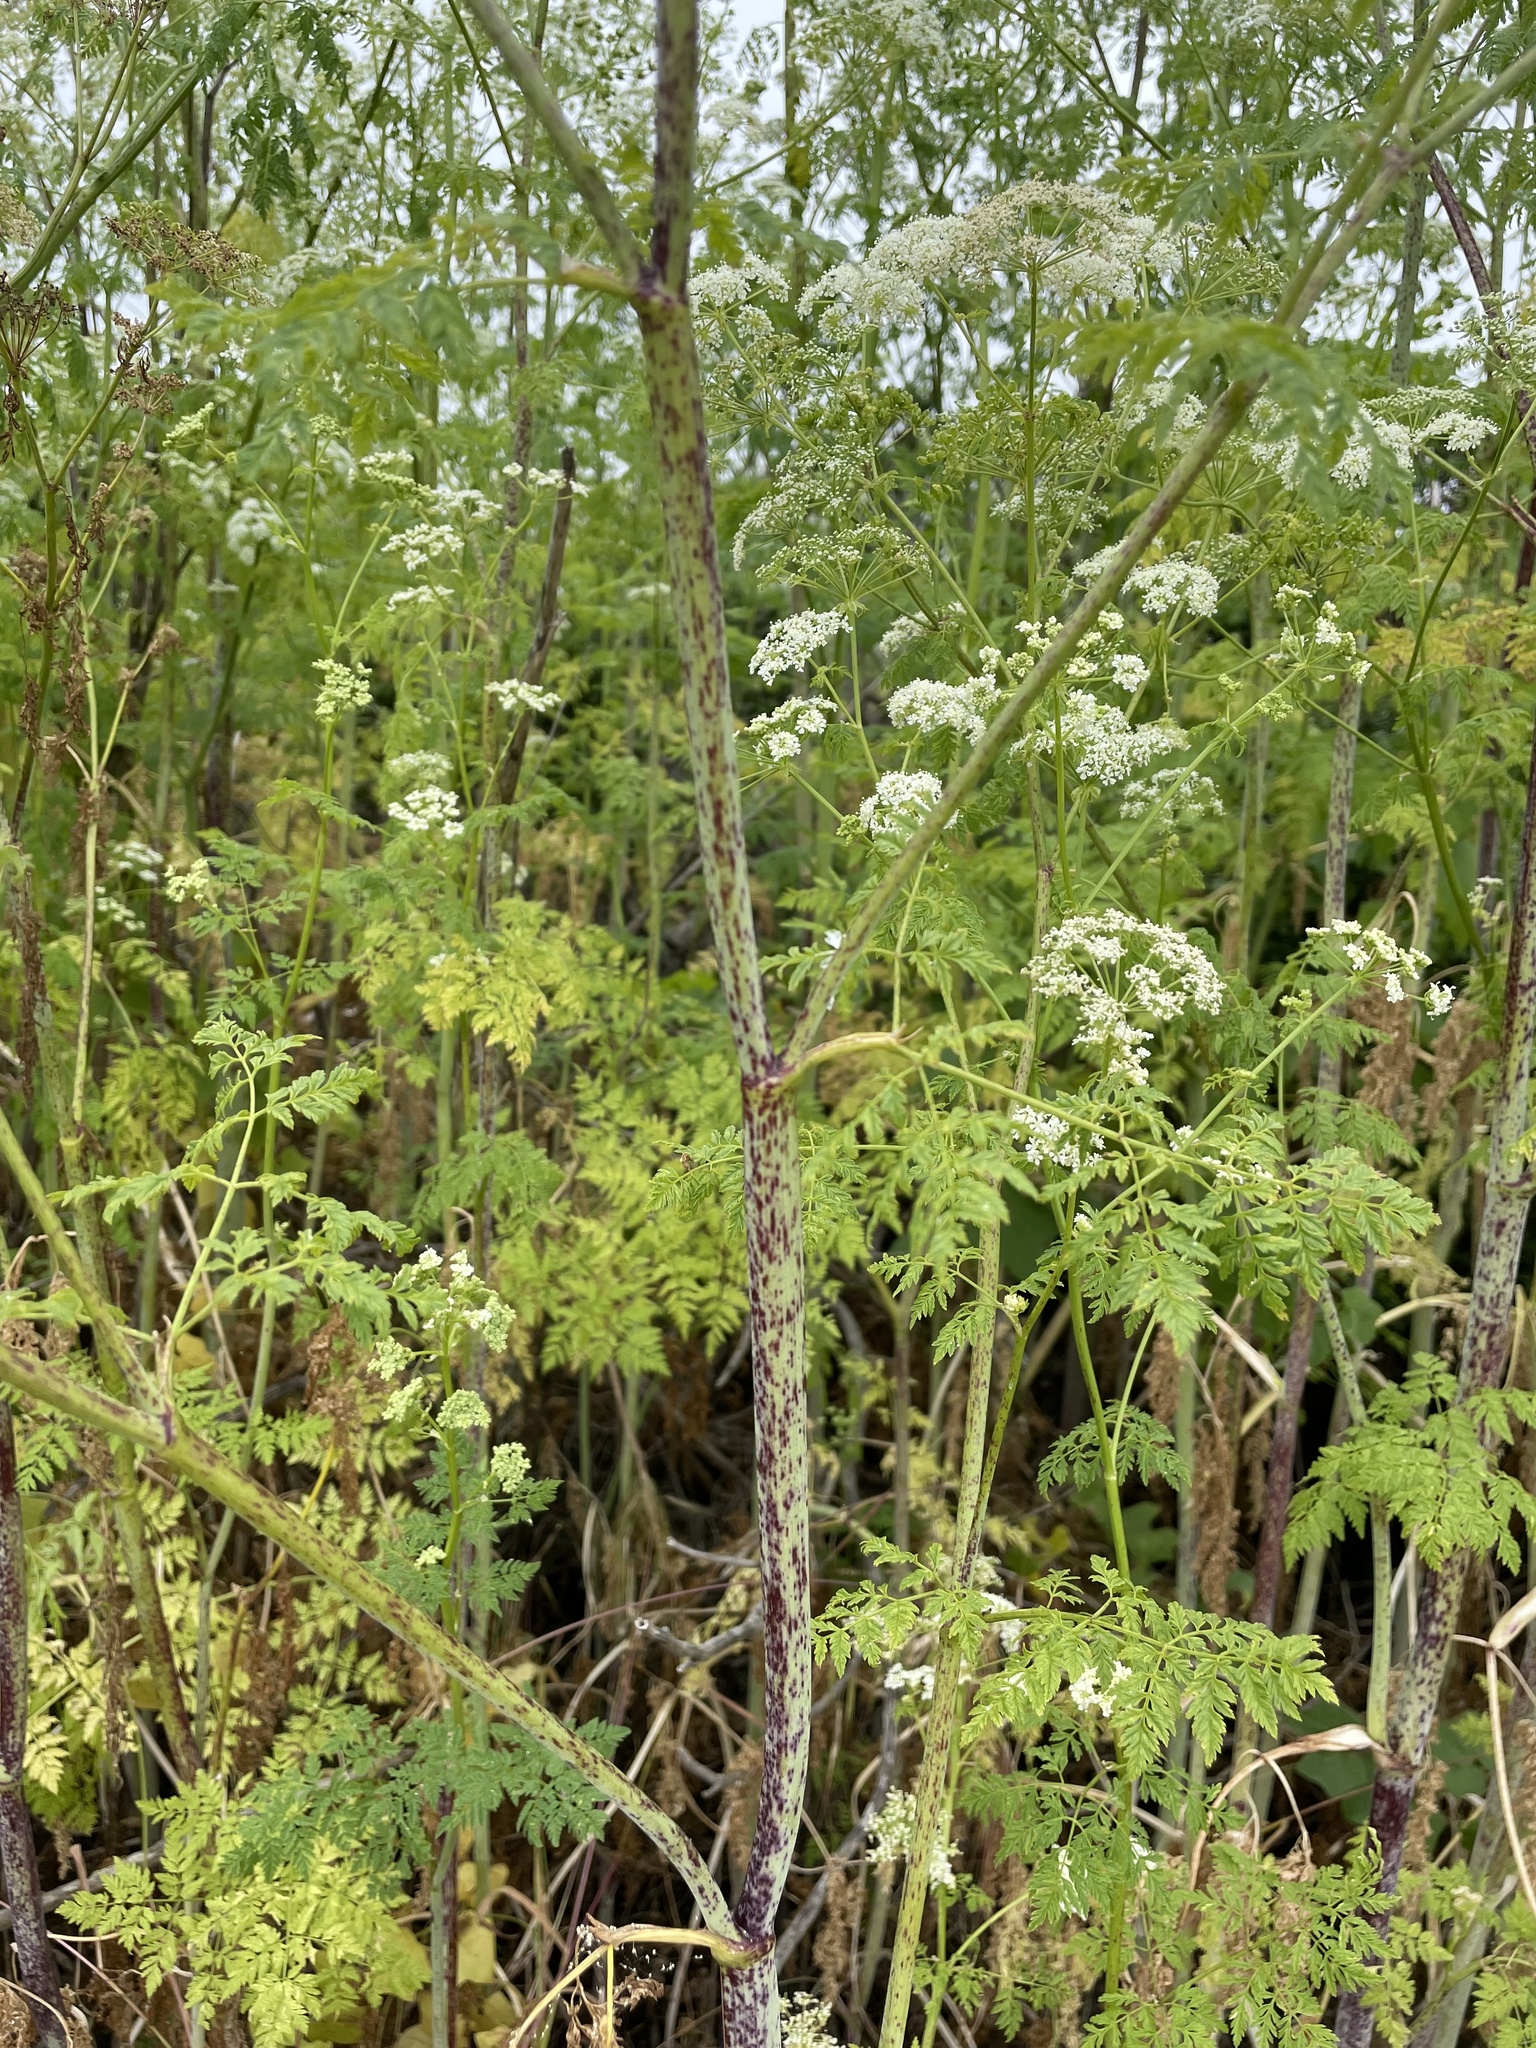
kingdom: Plantae
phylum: Tracheophyta
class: Magnoliopsida
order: Apiales
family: Apiaceae
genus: Conium
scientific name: Conium maculatum
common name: Hemlock
